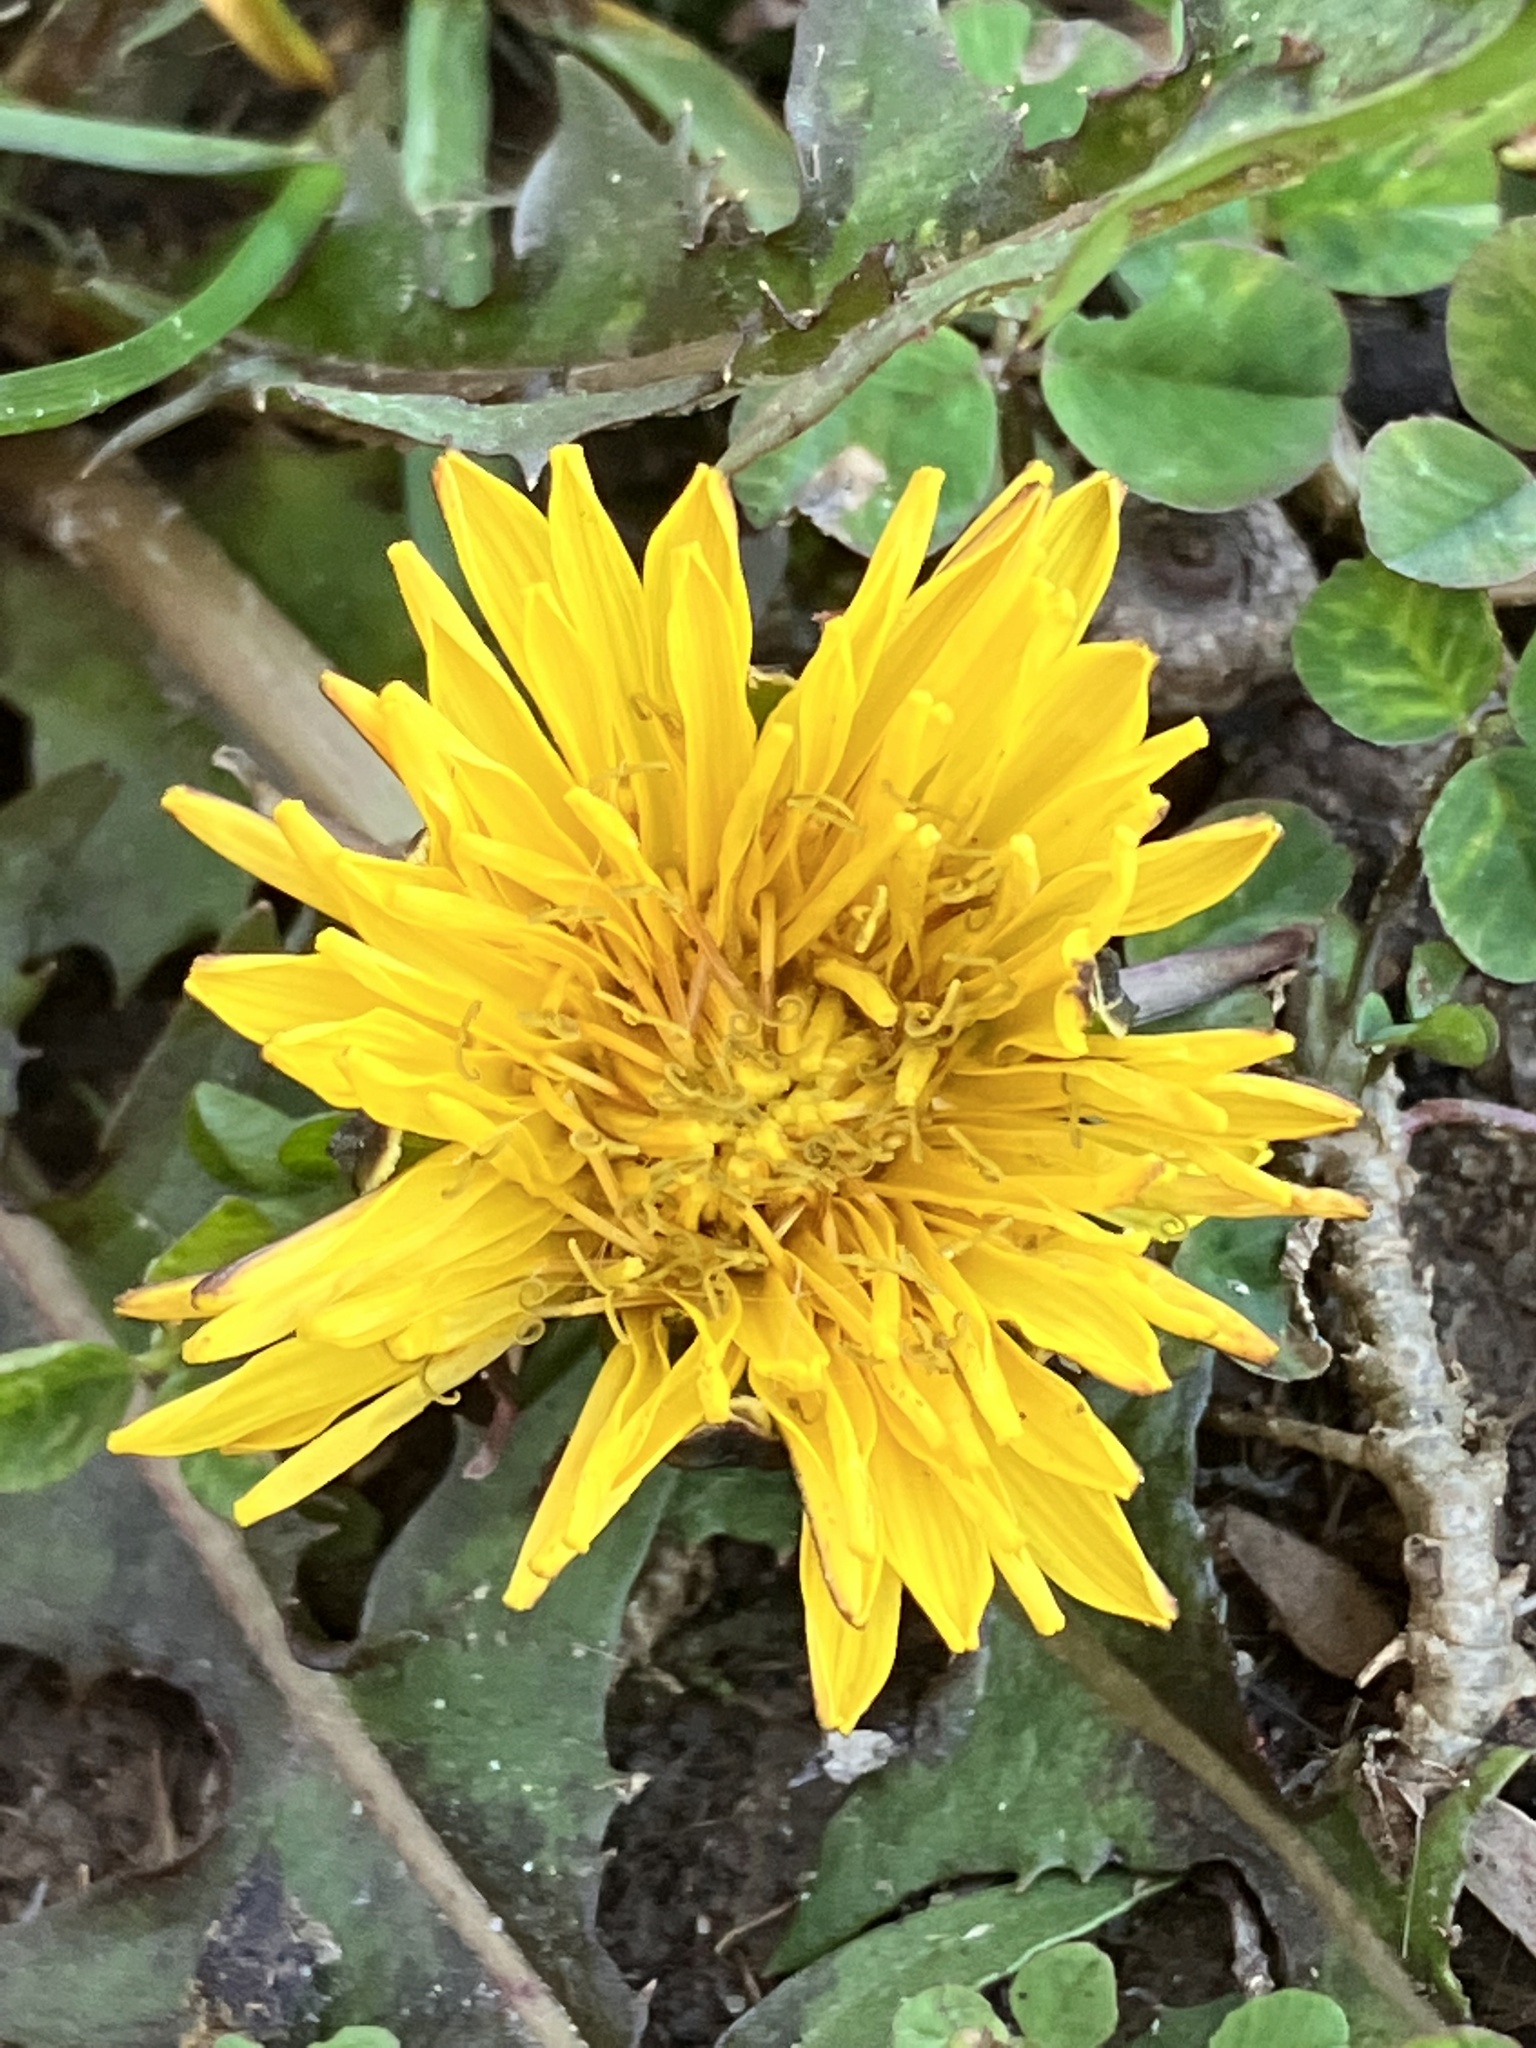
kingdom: Plantae
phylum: Tracheophyta
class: Magnoliopsida
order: Asterales
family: Asteraceae
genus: Taraxacum
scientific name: Taraxacum
